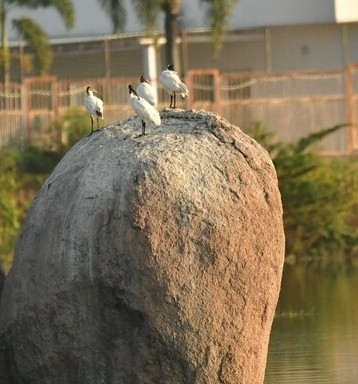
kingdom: Animalia
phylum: Chordata
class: Aves
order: Pelecaniformes
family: Threskiornithidae
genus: Threskiornis
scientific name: Threskiornis melanocephalus
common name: Black-headed ibis
